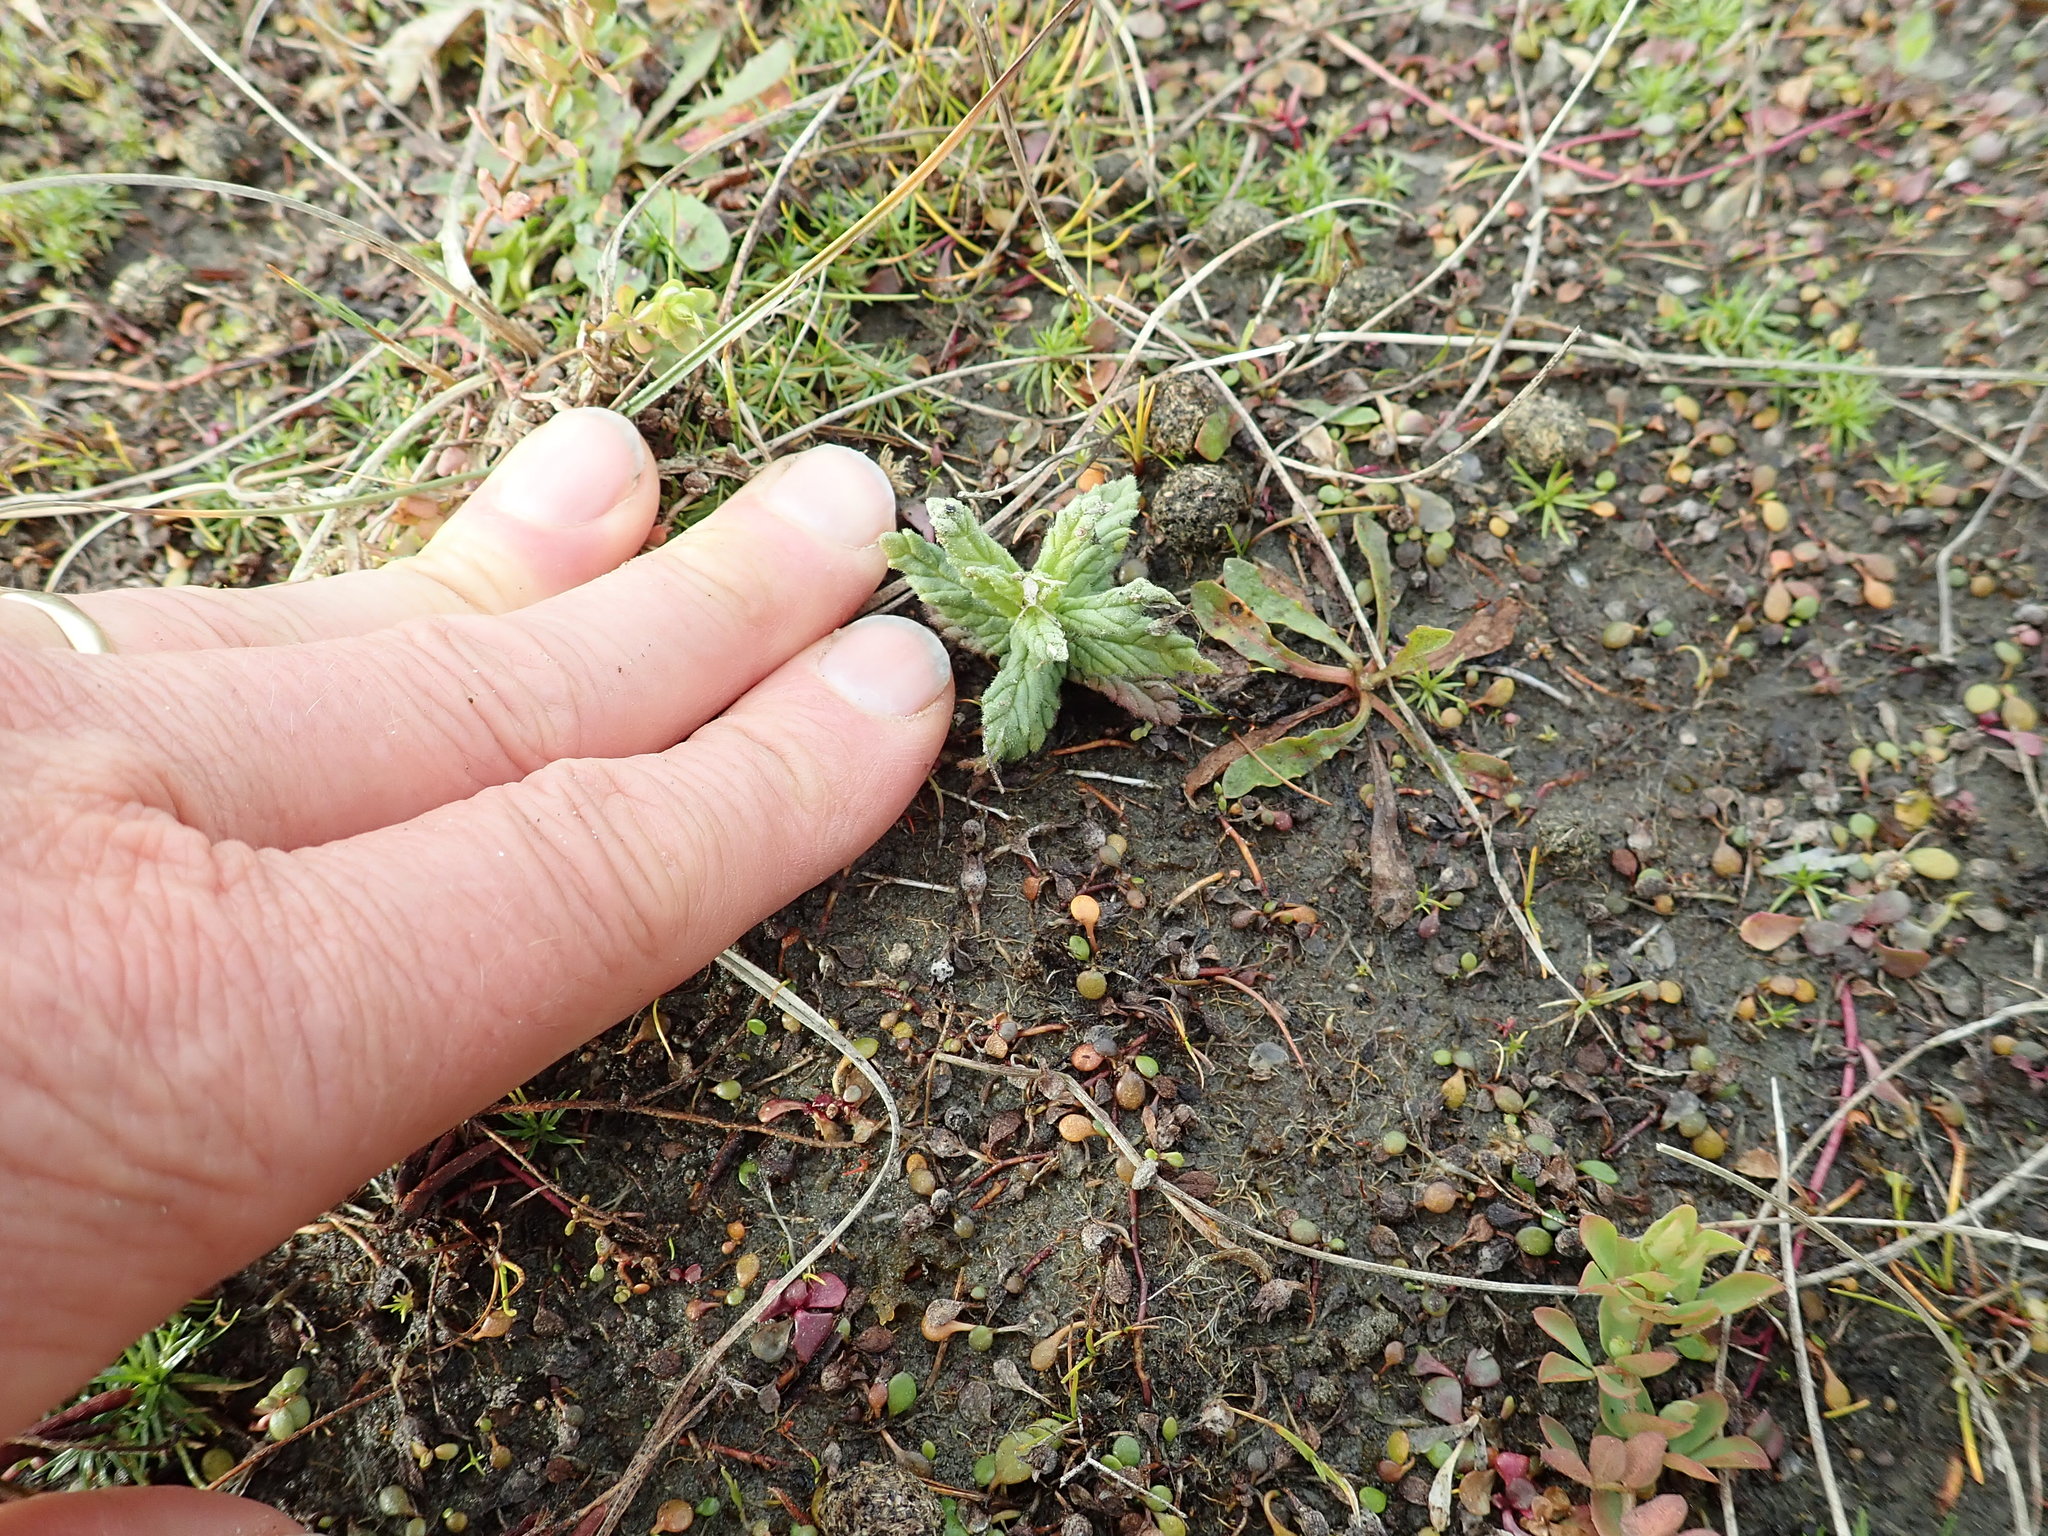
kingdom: Plantae
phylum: Tracheophyta
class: Magnoliopsida
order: Lamiales
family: Orobanchaceae
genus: Bellardia
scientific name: Bellardia viscosa
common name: Sticky parentucellia
